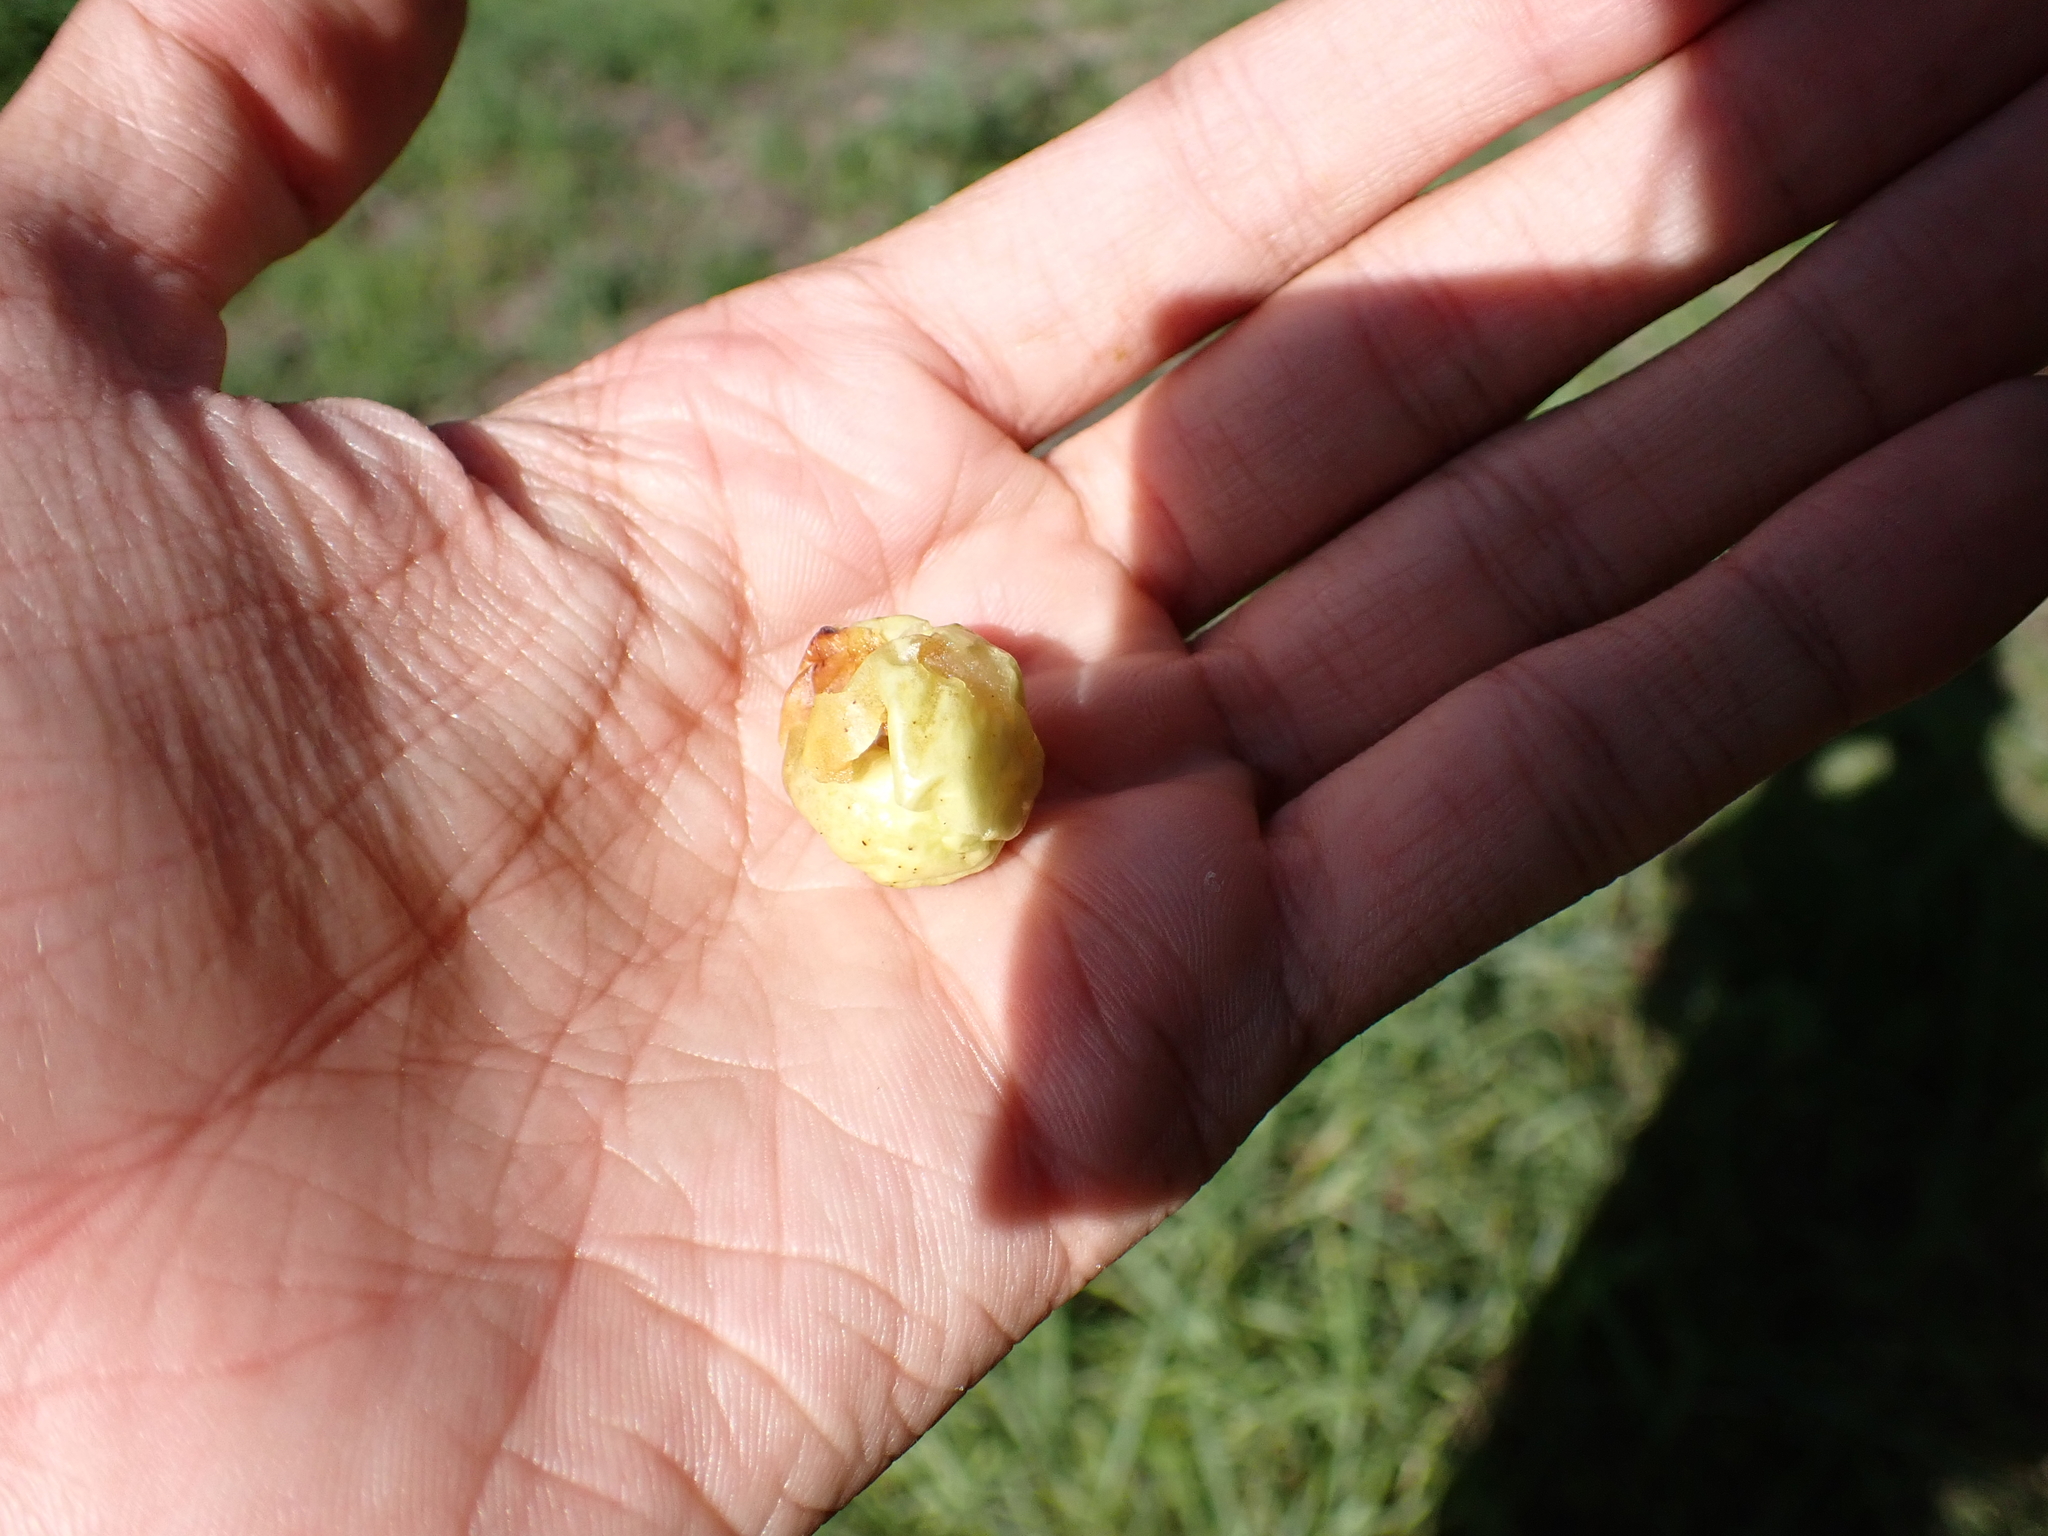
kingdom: Animalia
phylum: Arthropoda
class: Insecta
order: Hymenoptera
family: Cynipidae
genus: Cynips
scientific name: Cynips quercusfolii
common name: Cherry gall
